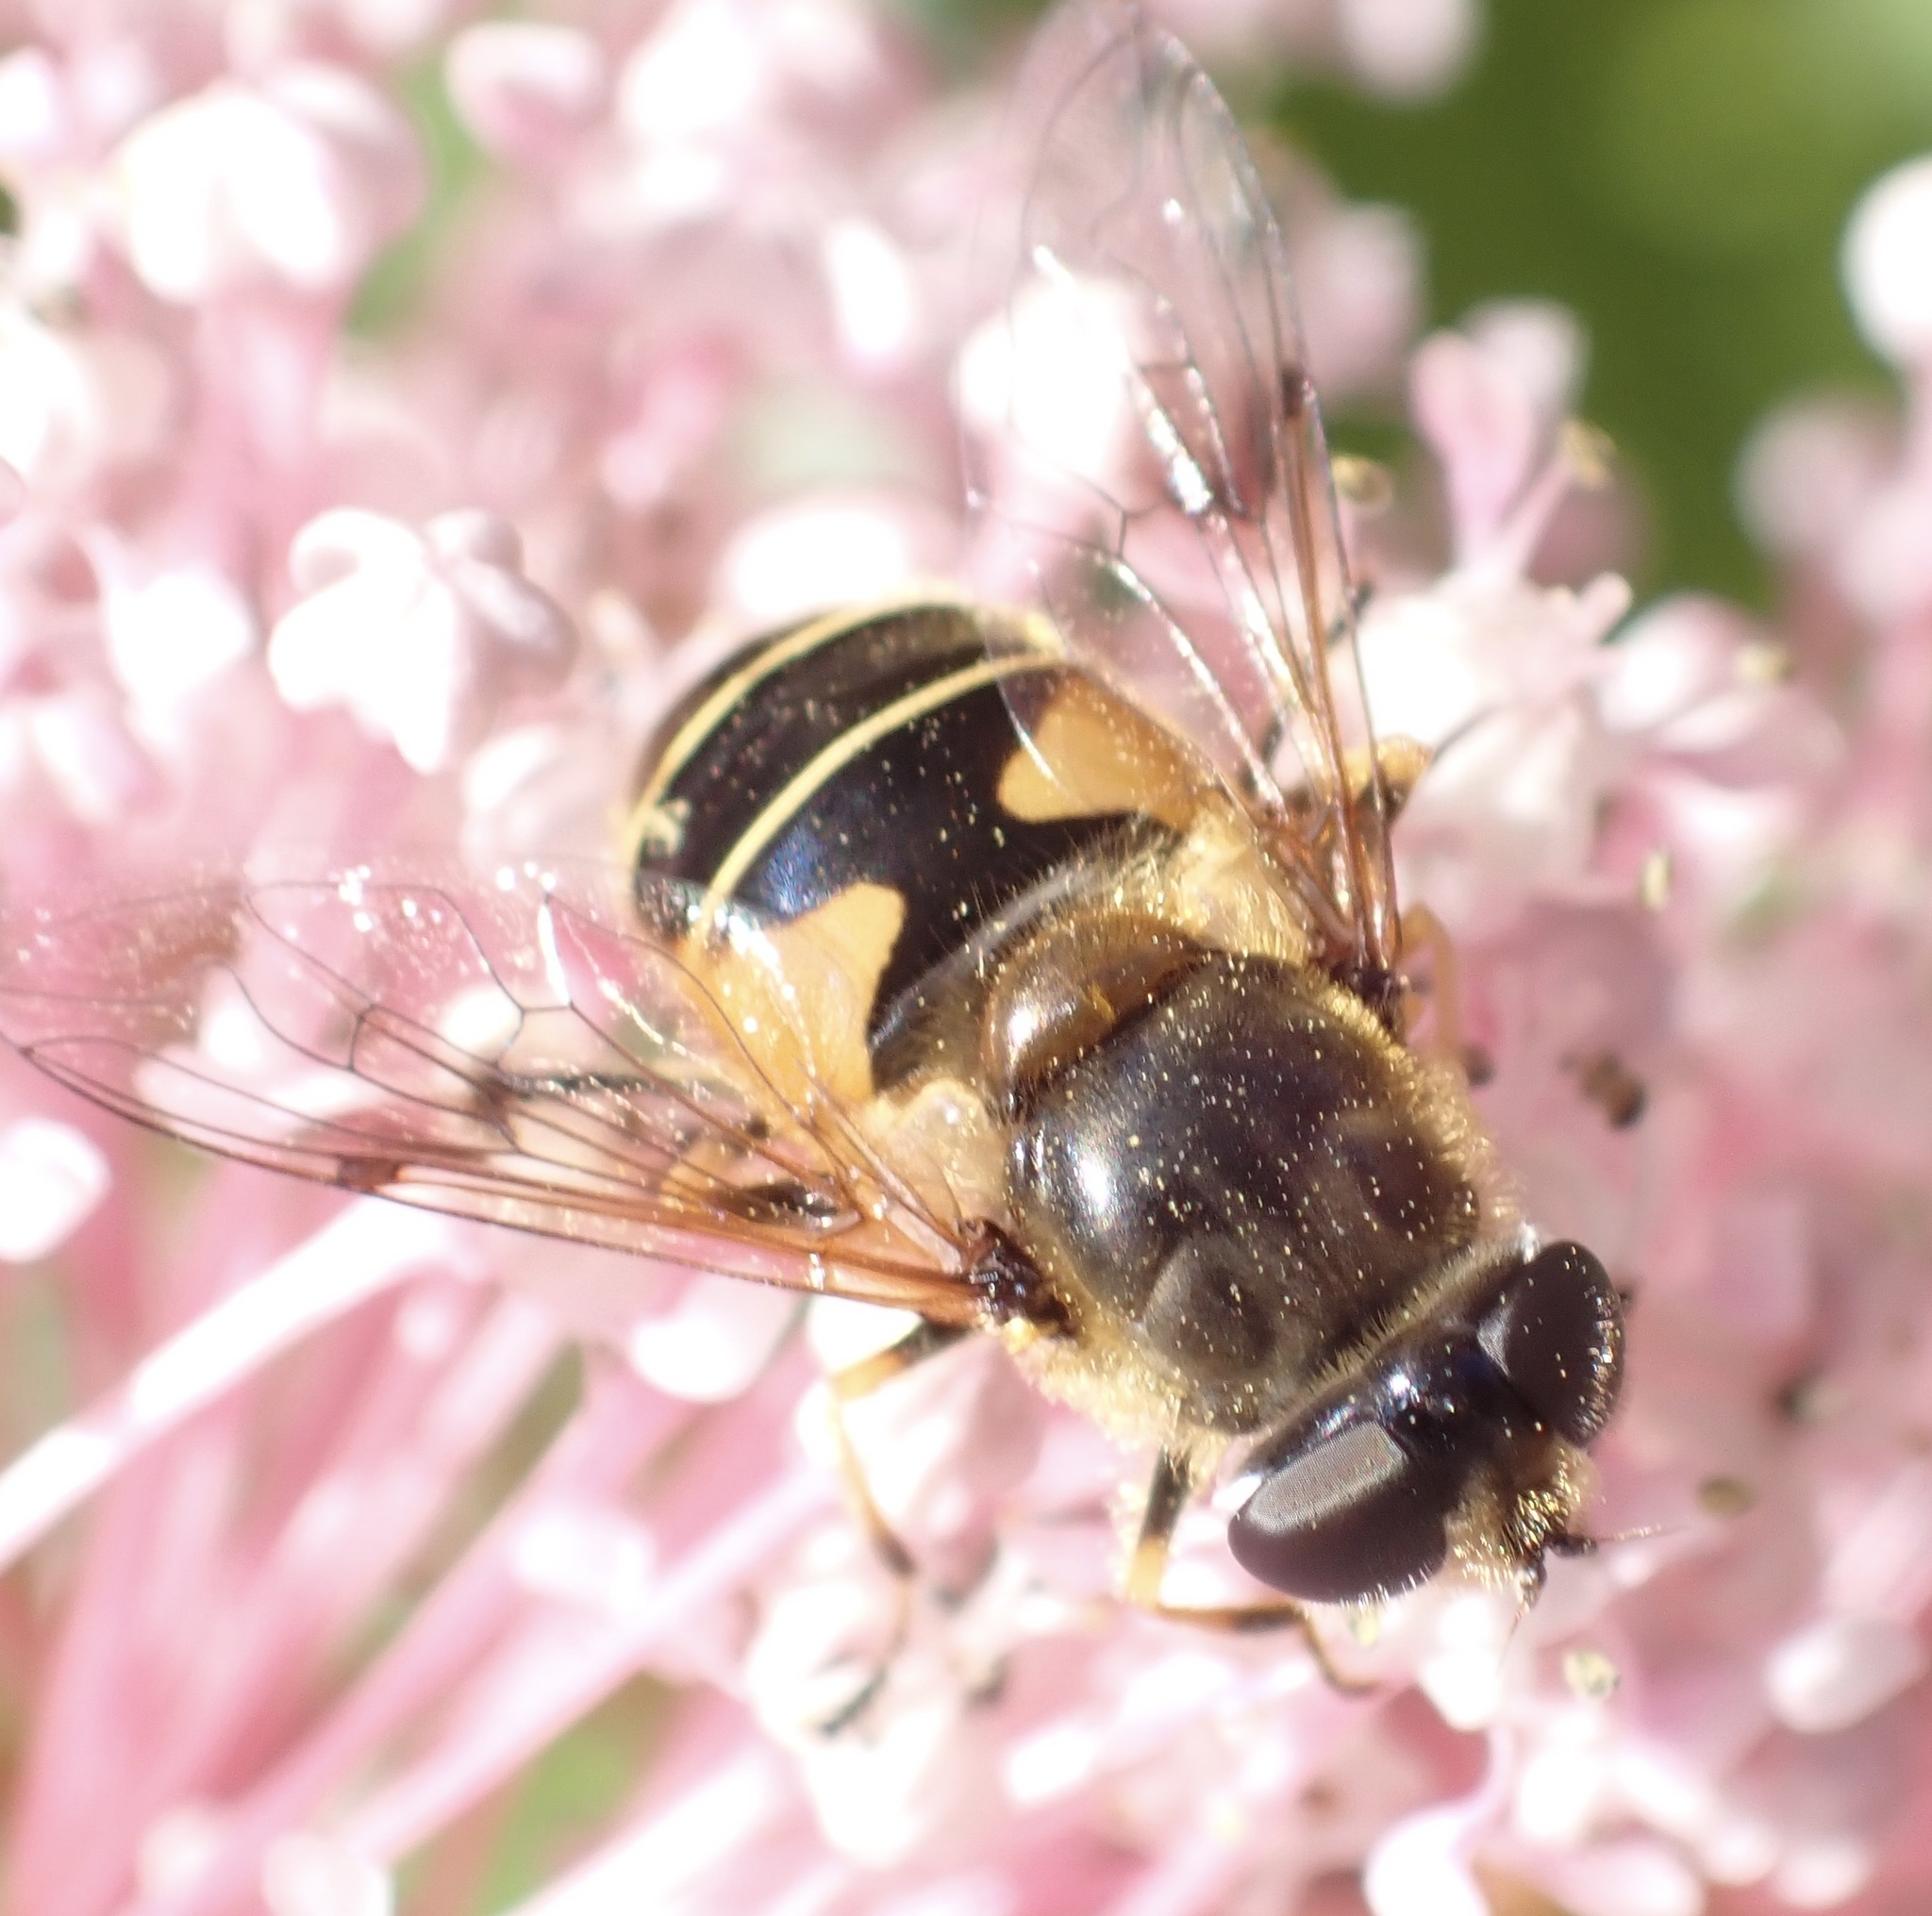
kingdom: Animalia
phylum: Arthropoda
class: Insecta
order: Diptera
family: Syrphidae
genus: Cheilosia
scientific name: Cheilosia morio
